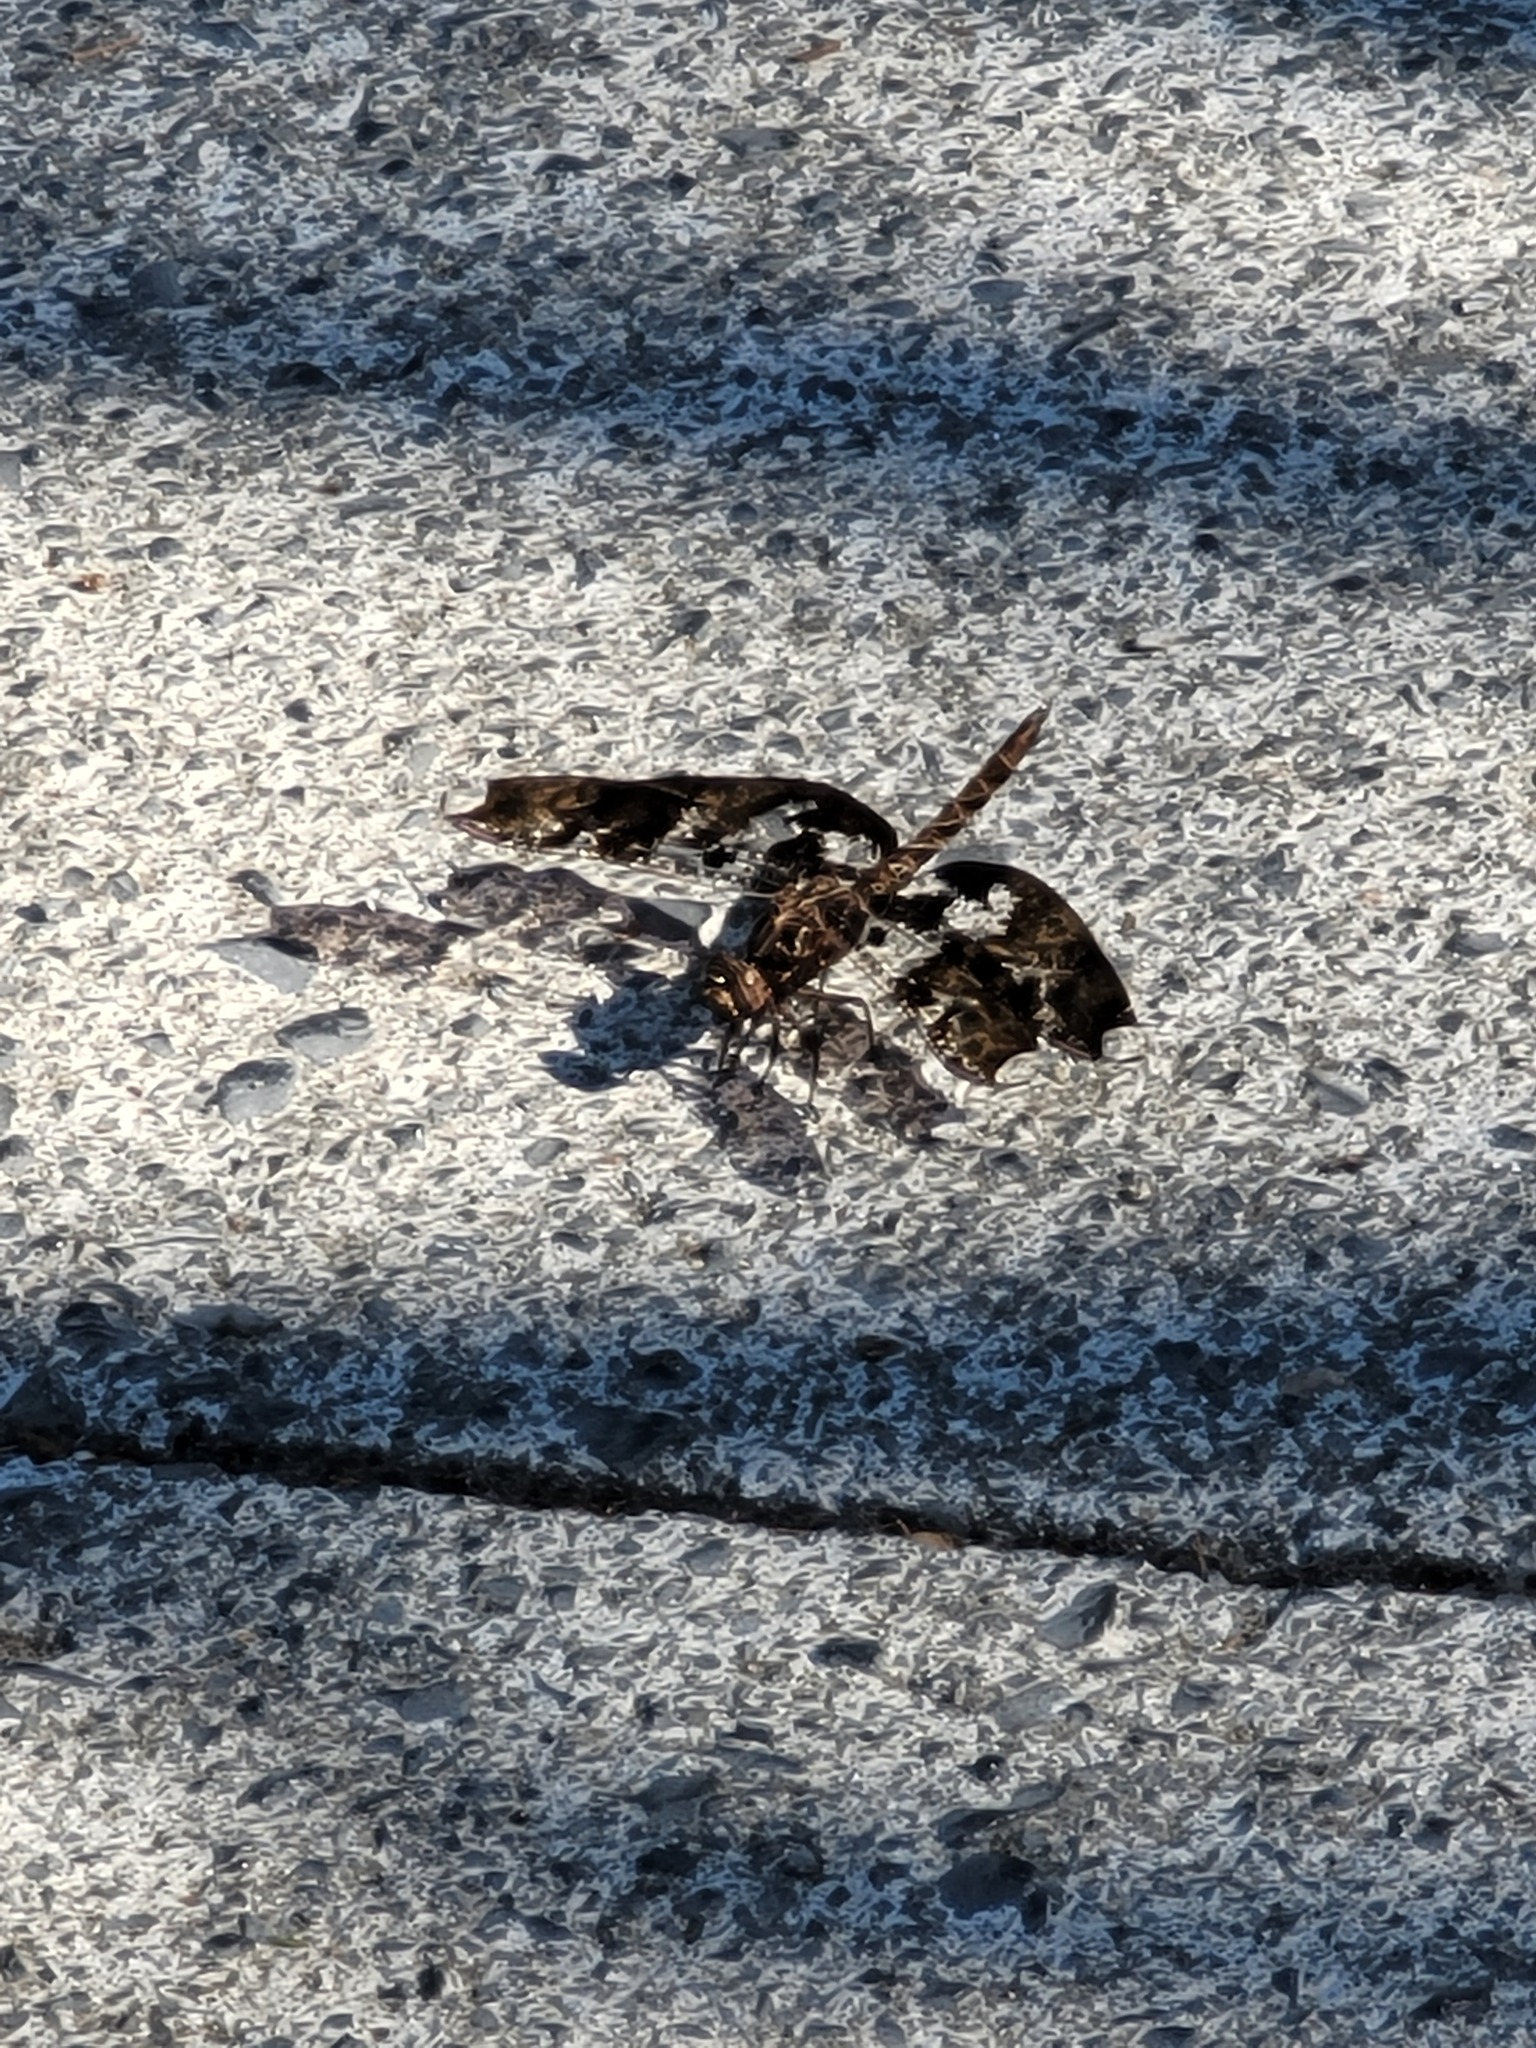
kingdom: Animalia
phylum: Arthropoda
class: Insecta
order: Odonata
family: Libellulidae
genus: Pseudoleon
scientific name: Pseudoleon superbus
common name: Filigree skimmer
